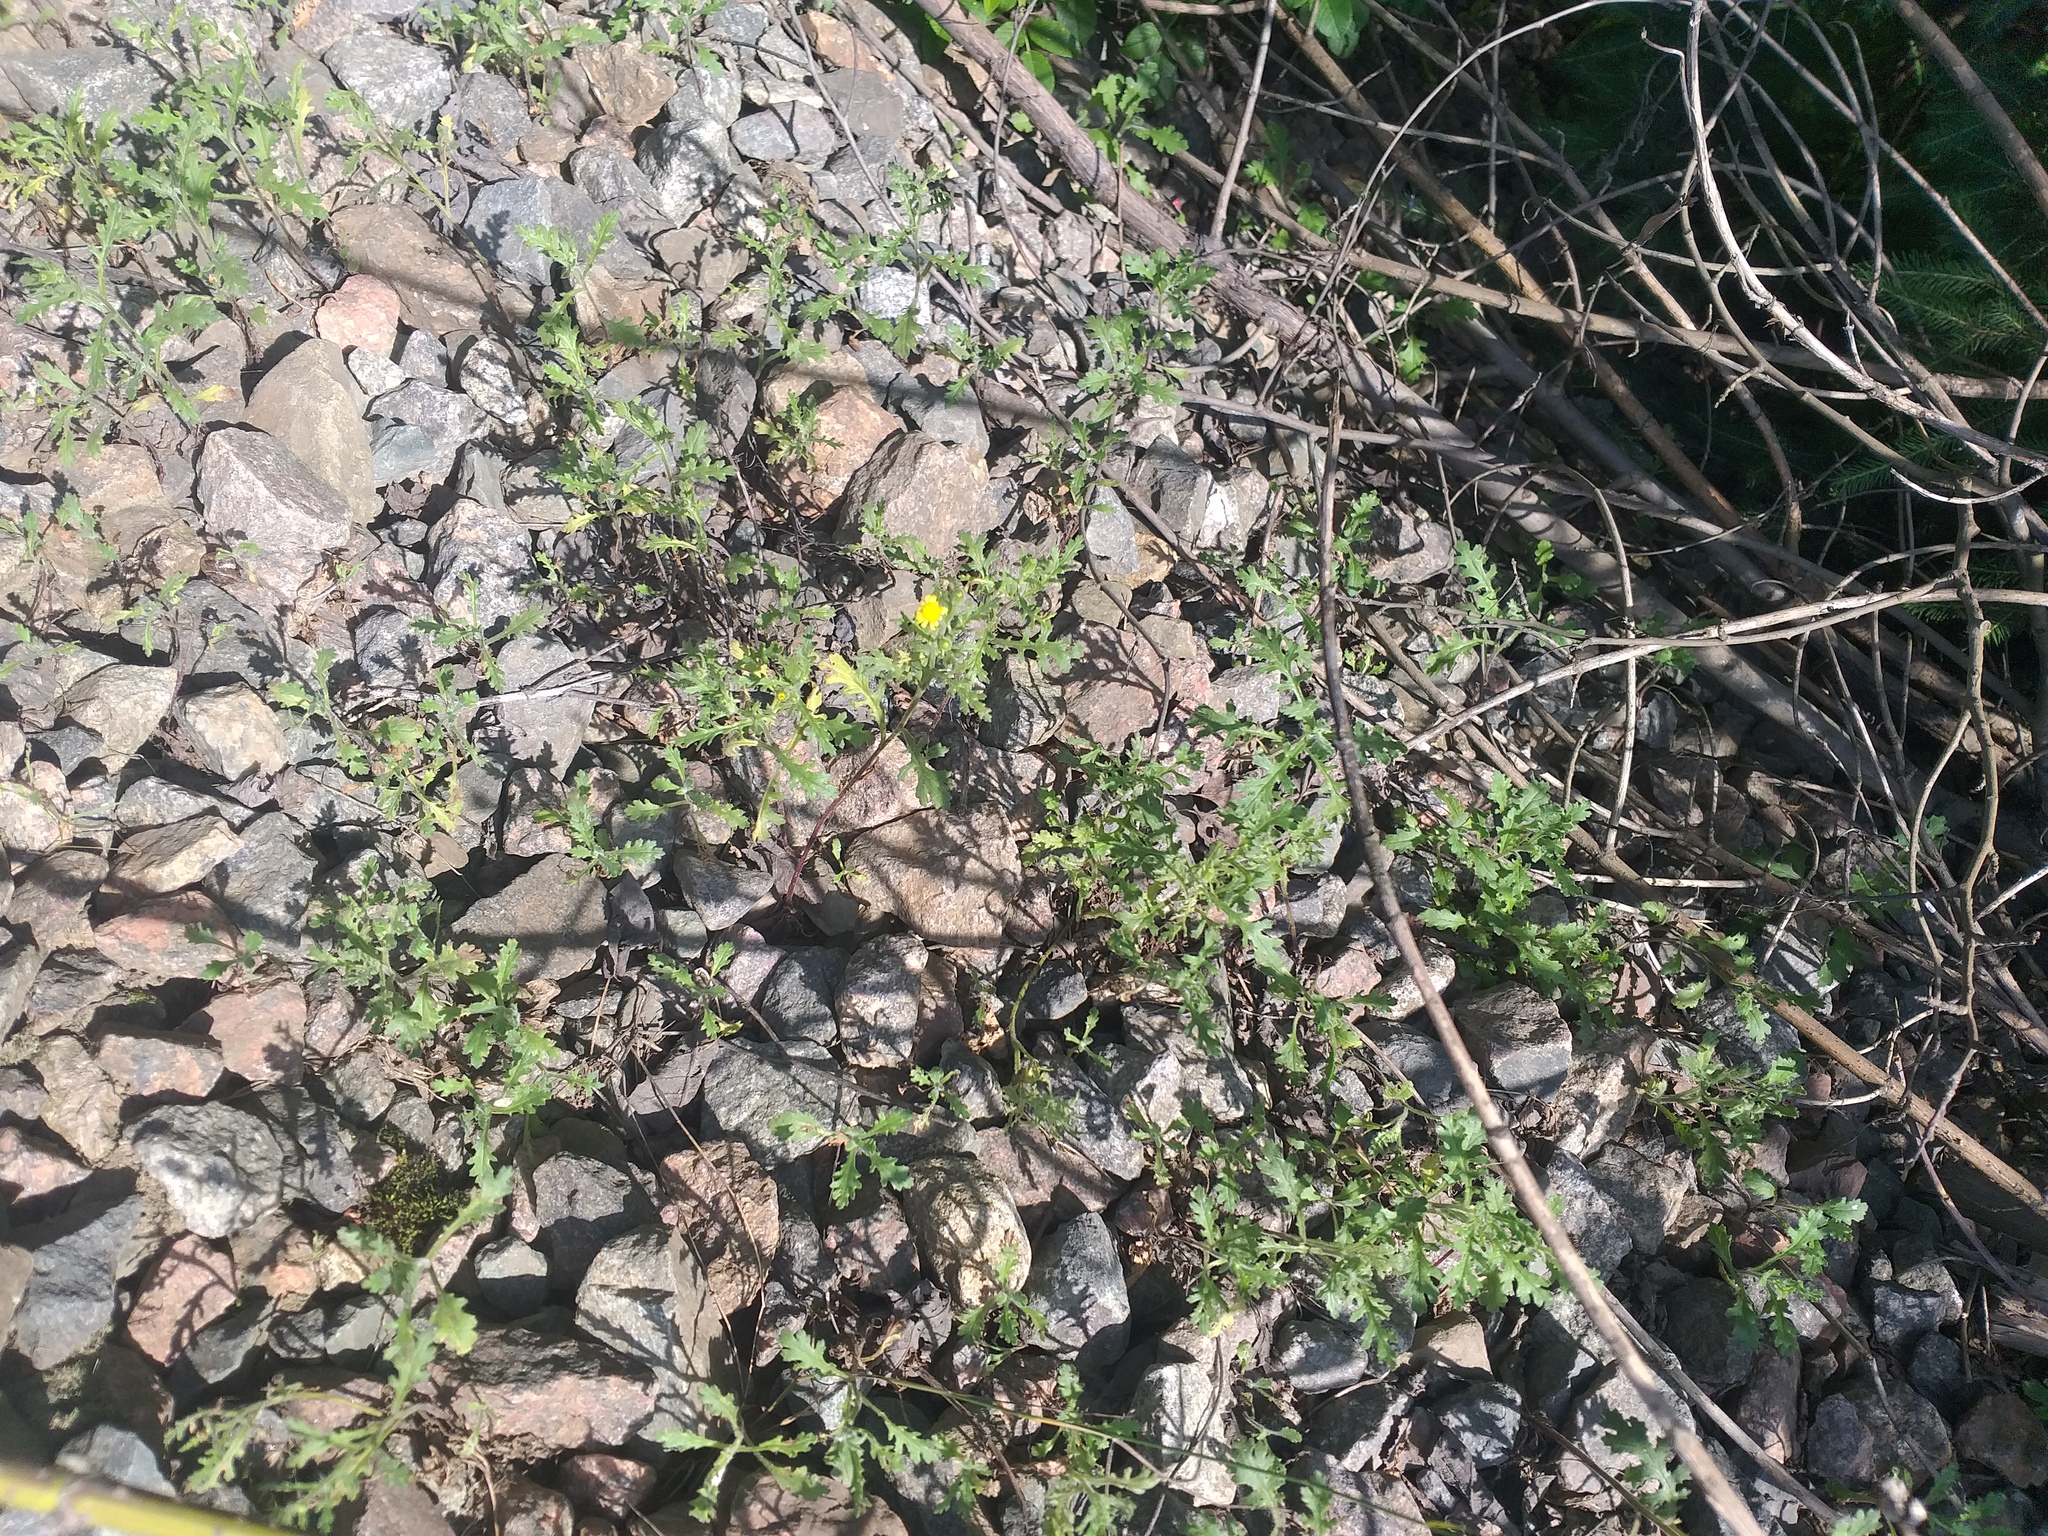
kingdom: Plantae
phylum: Tracheophyta
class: Magnoliopsida
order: Asterales
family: Asteraceae
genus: Senecio
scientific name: Senecio viscosus
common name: Sticky groundsel
